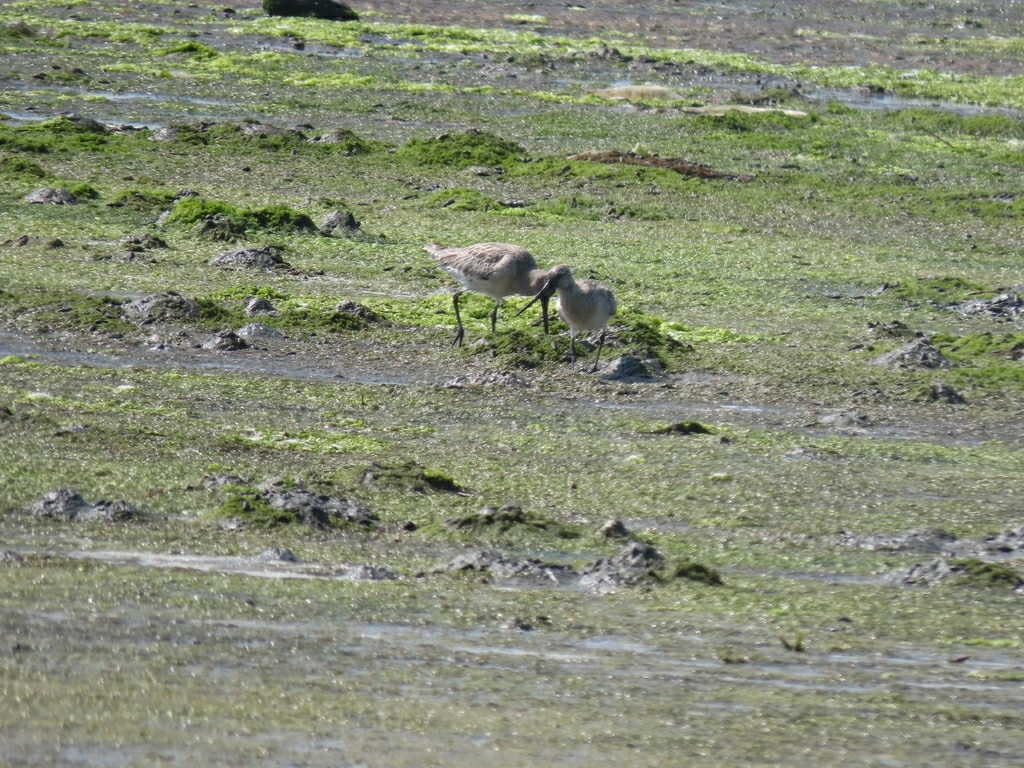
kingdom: Animalia
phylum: Chordata
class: Aves
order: Charadriiformes
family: Scolopacidae
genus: Limosa
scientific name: Limosa lapponica
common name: Bar-tailed godwit
